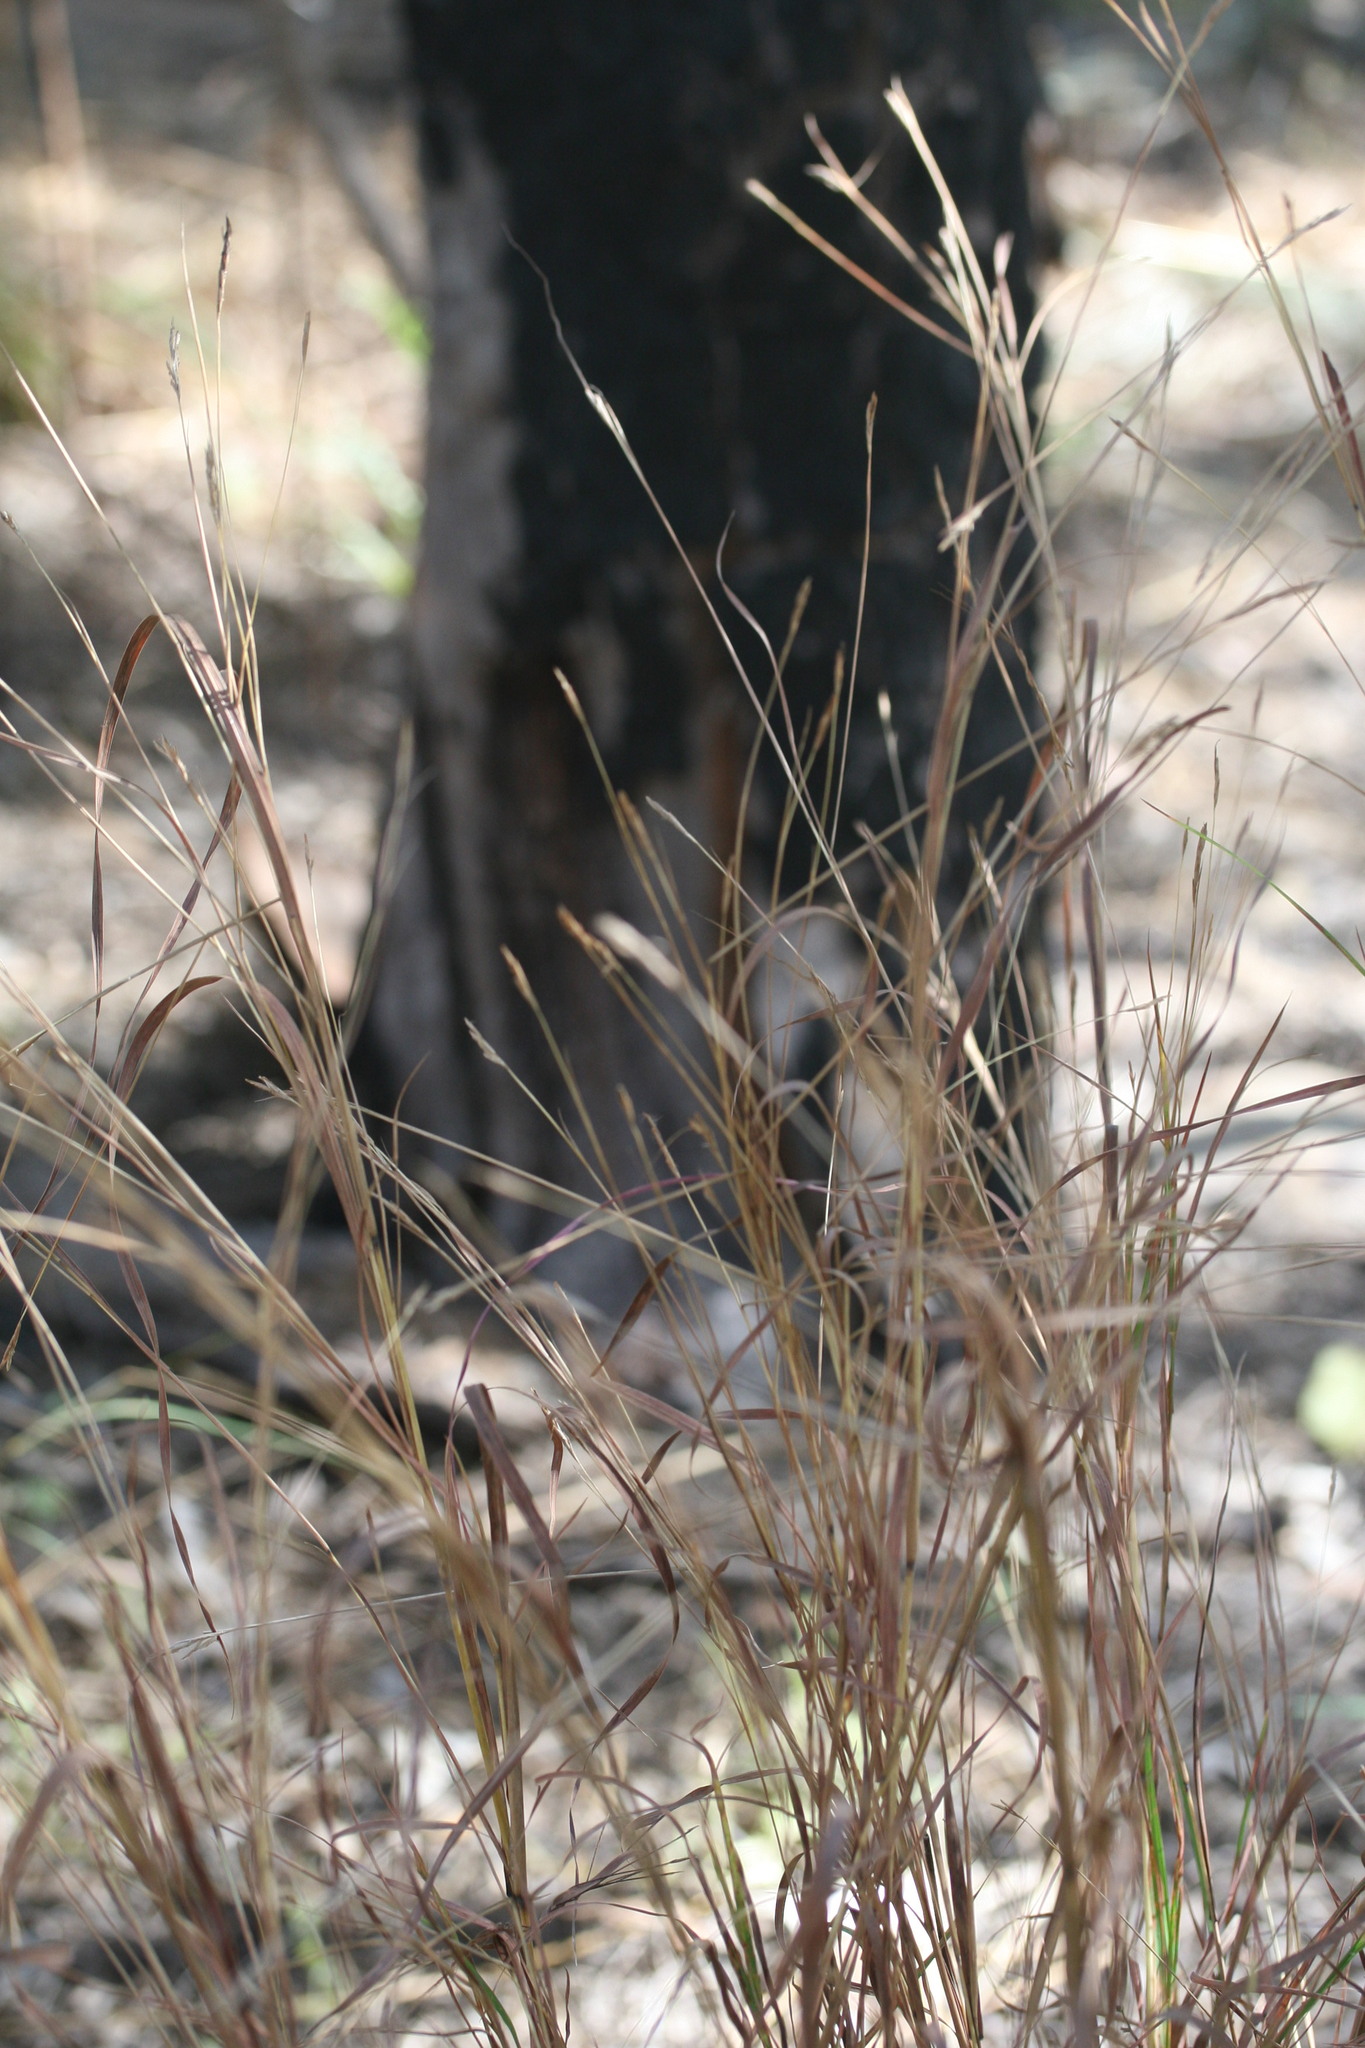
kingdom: Plantae
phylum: Tracheophyta
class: Liliopsida
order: Poales
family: Poaceae
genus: Heteropogon
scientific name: Heteropogon contortus
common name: Tanglehead
